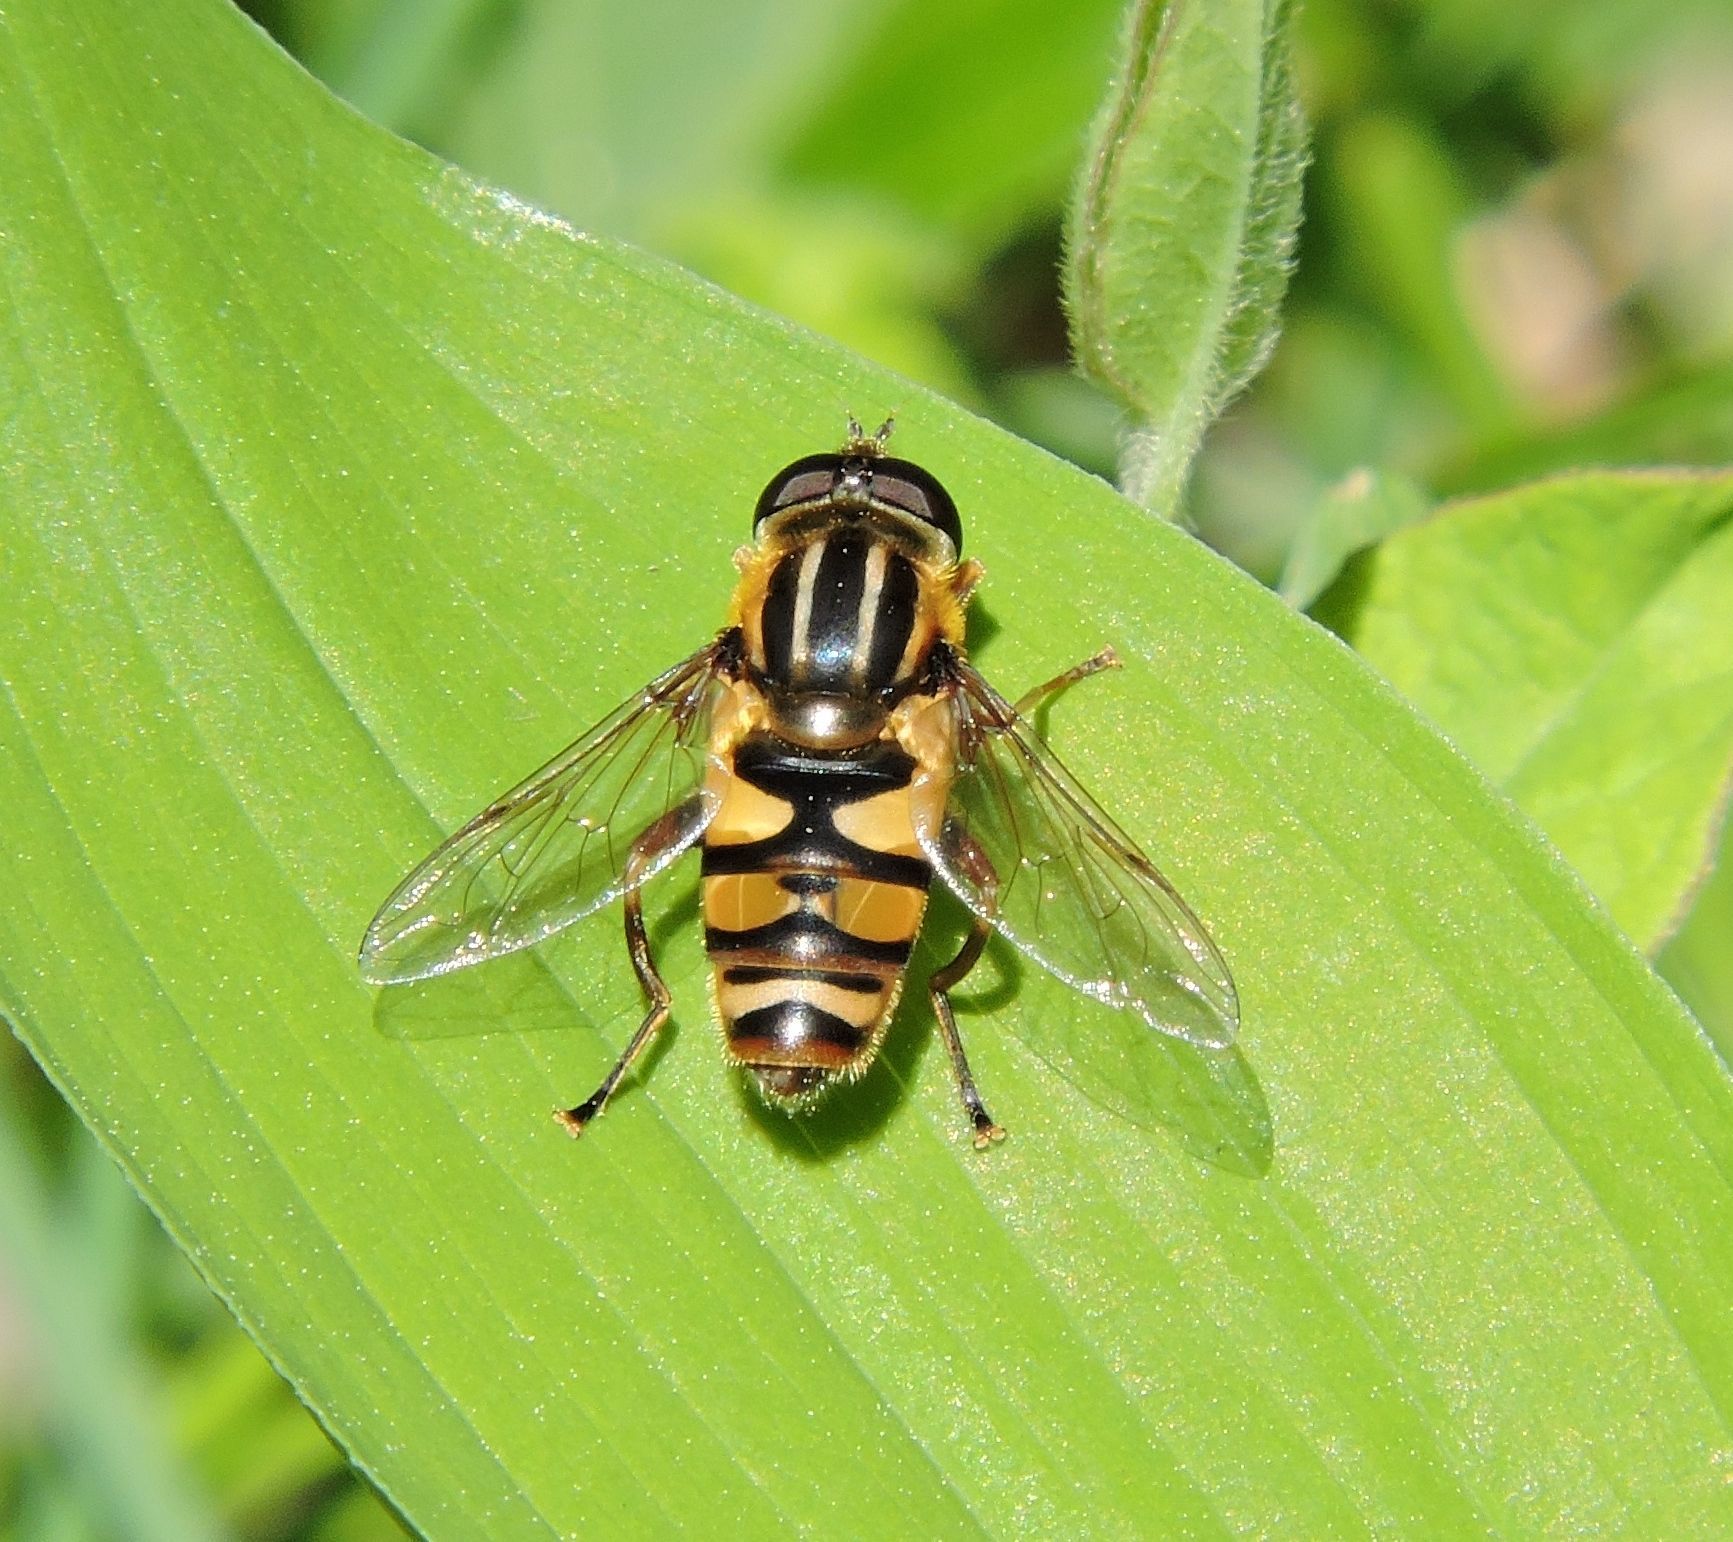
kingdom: Animalia
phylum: Arthropoda
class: Insecta
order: Diptera
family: Syrphidae
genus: Helophilus
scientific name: Helophilus fasciatus
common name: Narrow-headed marsh fly
